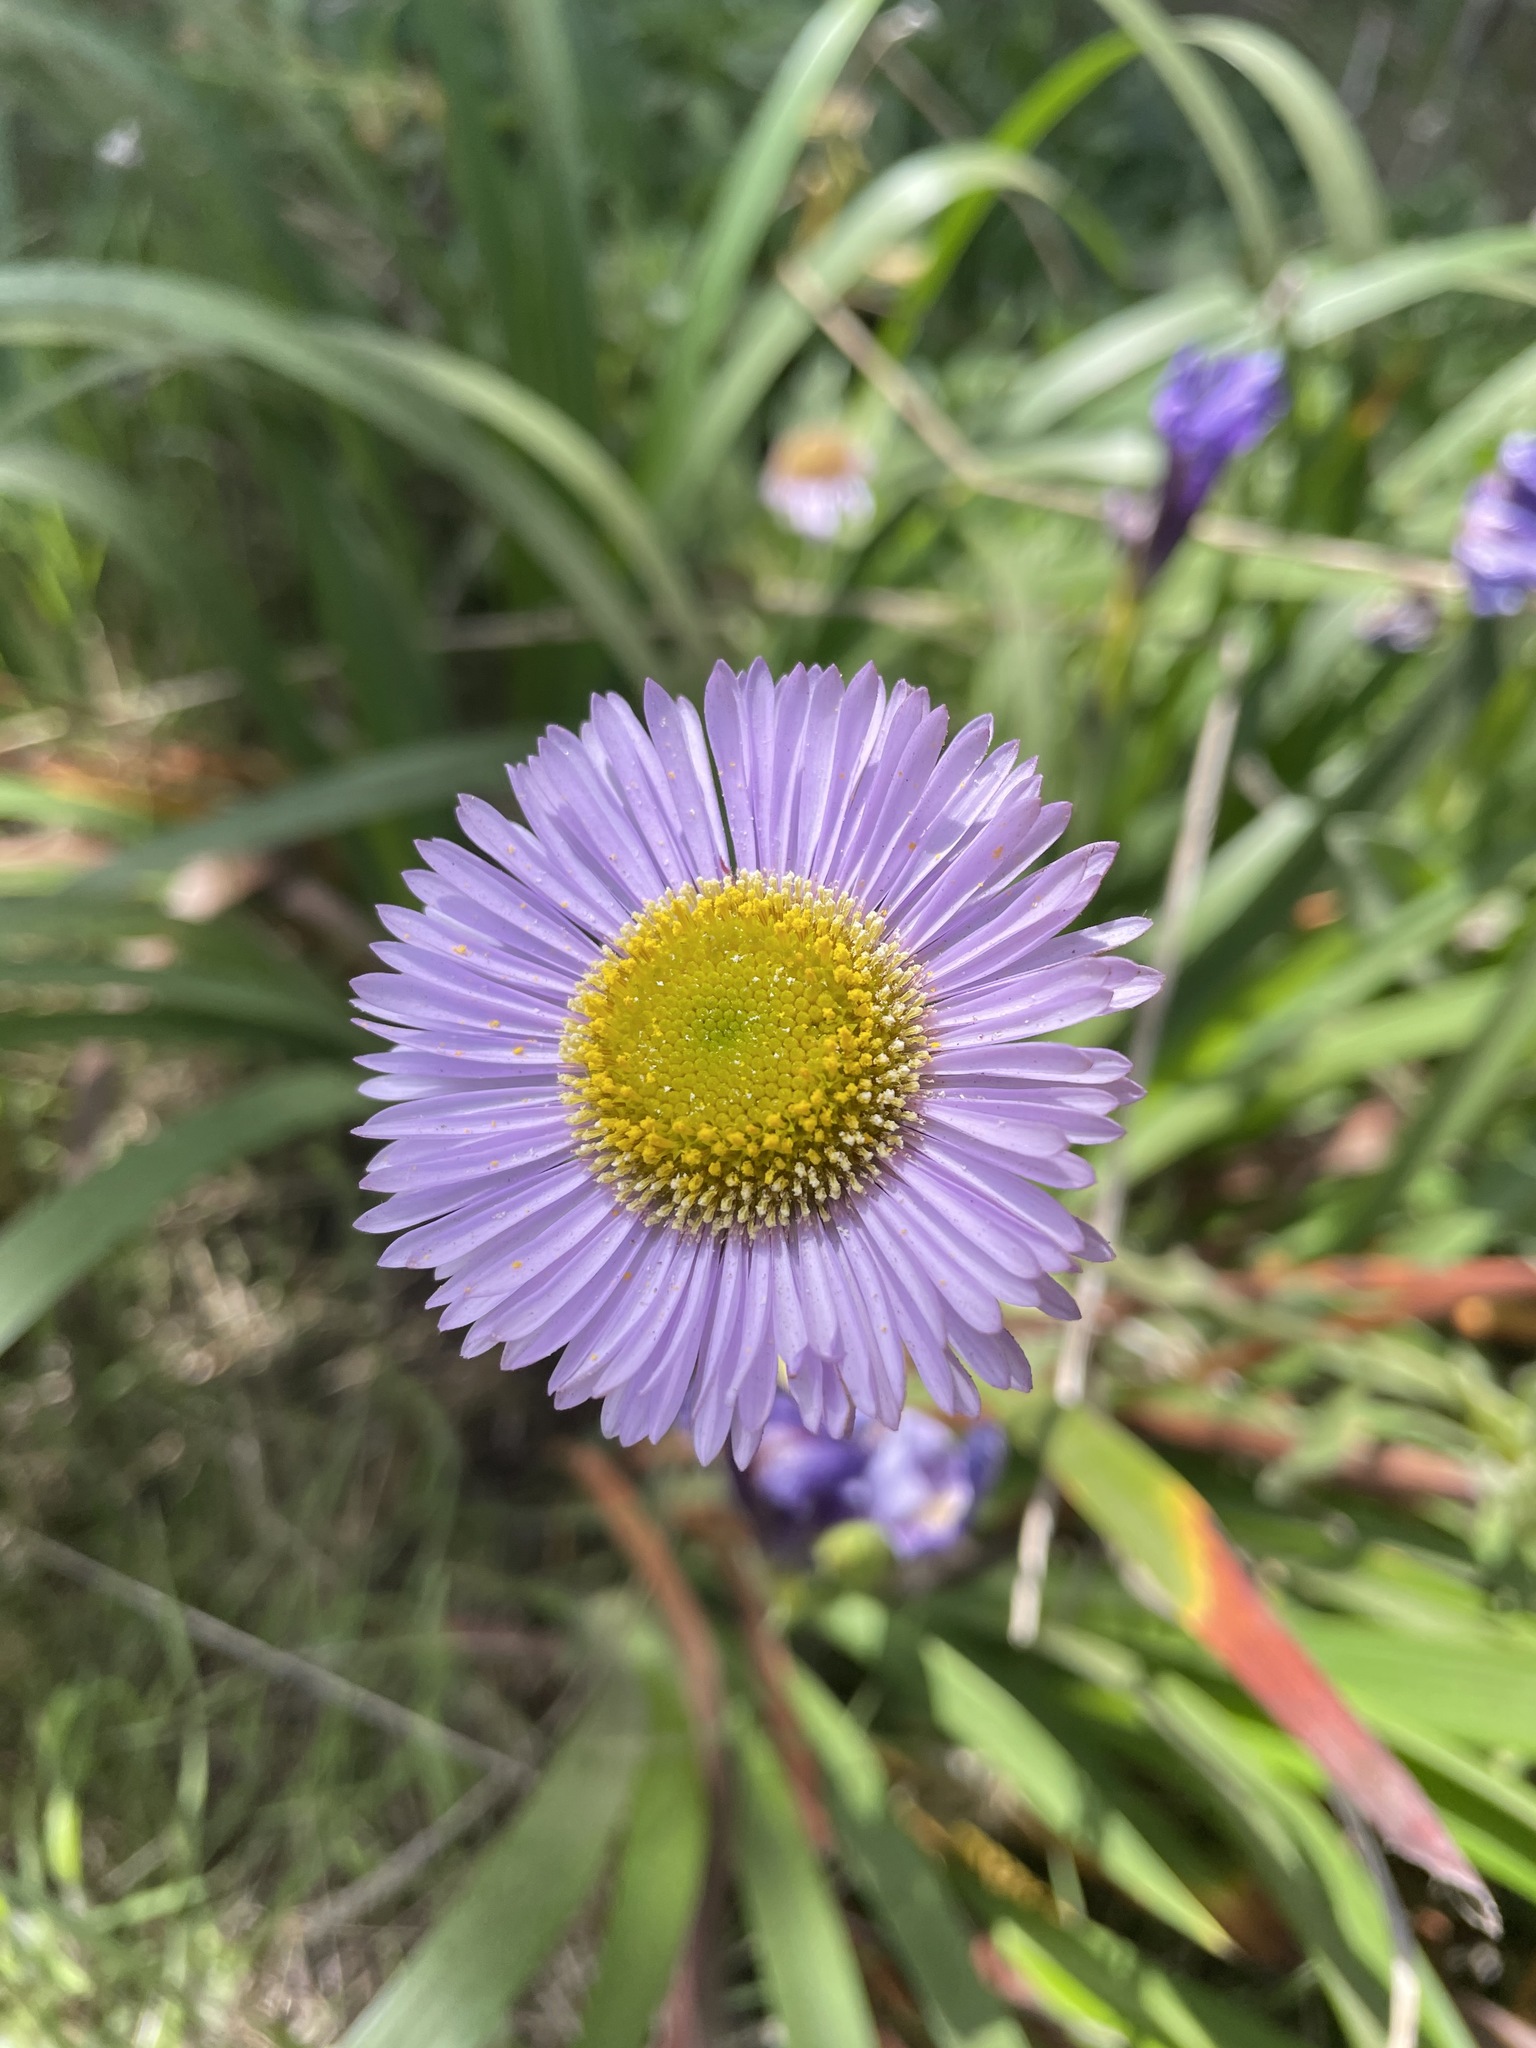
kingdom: Plantae
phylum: Tracheophyta
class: Magnoliopsida
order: Asterales
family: Asteraceae
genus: Erigeron
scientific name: Erigeron glaucus
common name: Seaside daisy
